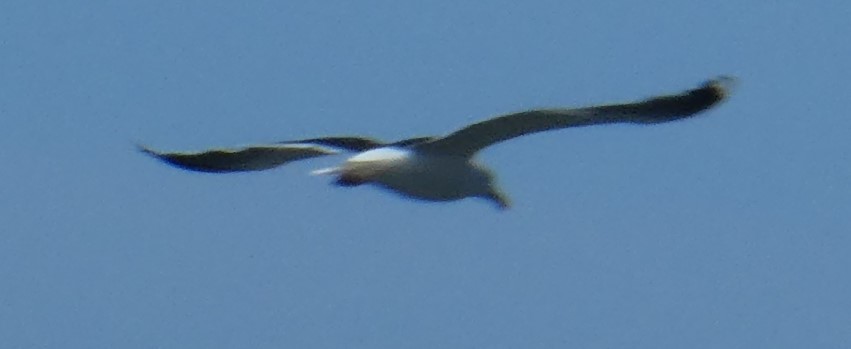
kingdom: Animalia
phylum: Chordata
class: Aves
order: Charadriiformes
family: Laridae
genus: Larus
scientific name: Larus marinus
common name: Great black-backed gull
